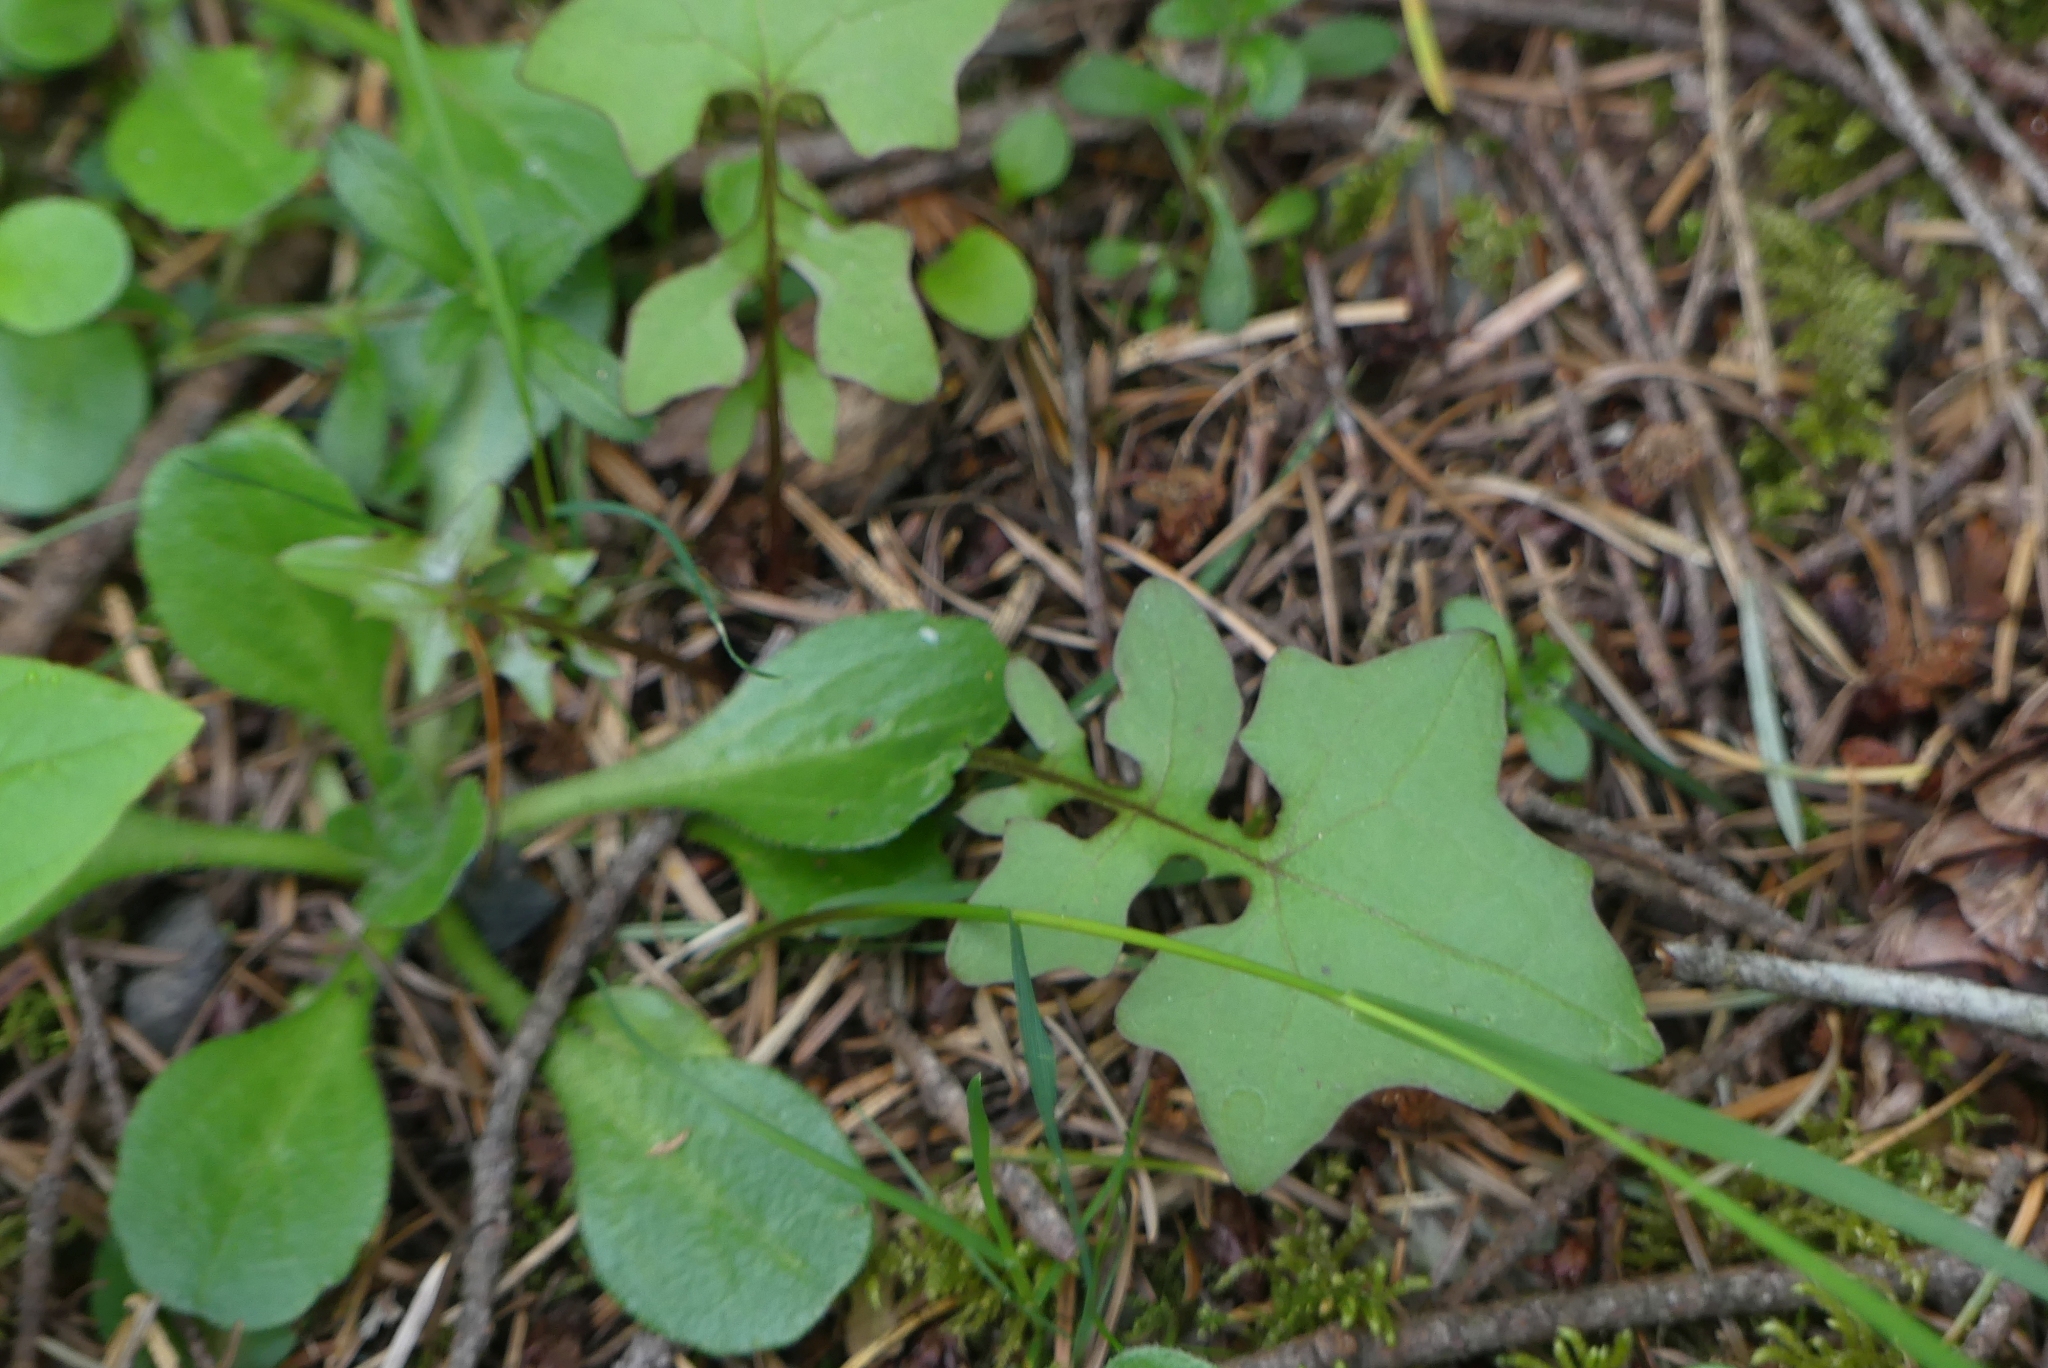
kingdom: Plantae
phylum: Tracheophyta
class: Magnoliopsida
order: Asterales
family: Asteraceae
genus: Mycelis
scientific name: Mycelis muralis
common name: Wall lettuce
